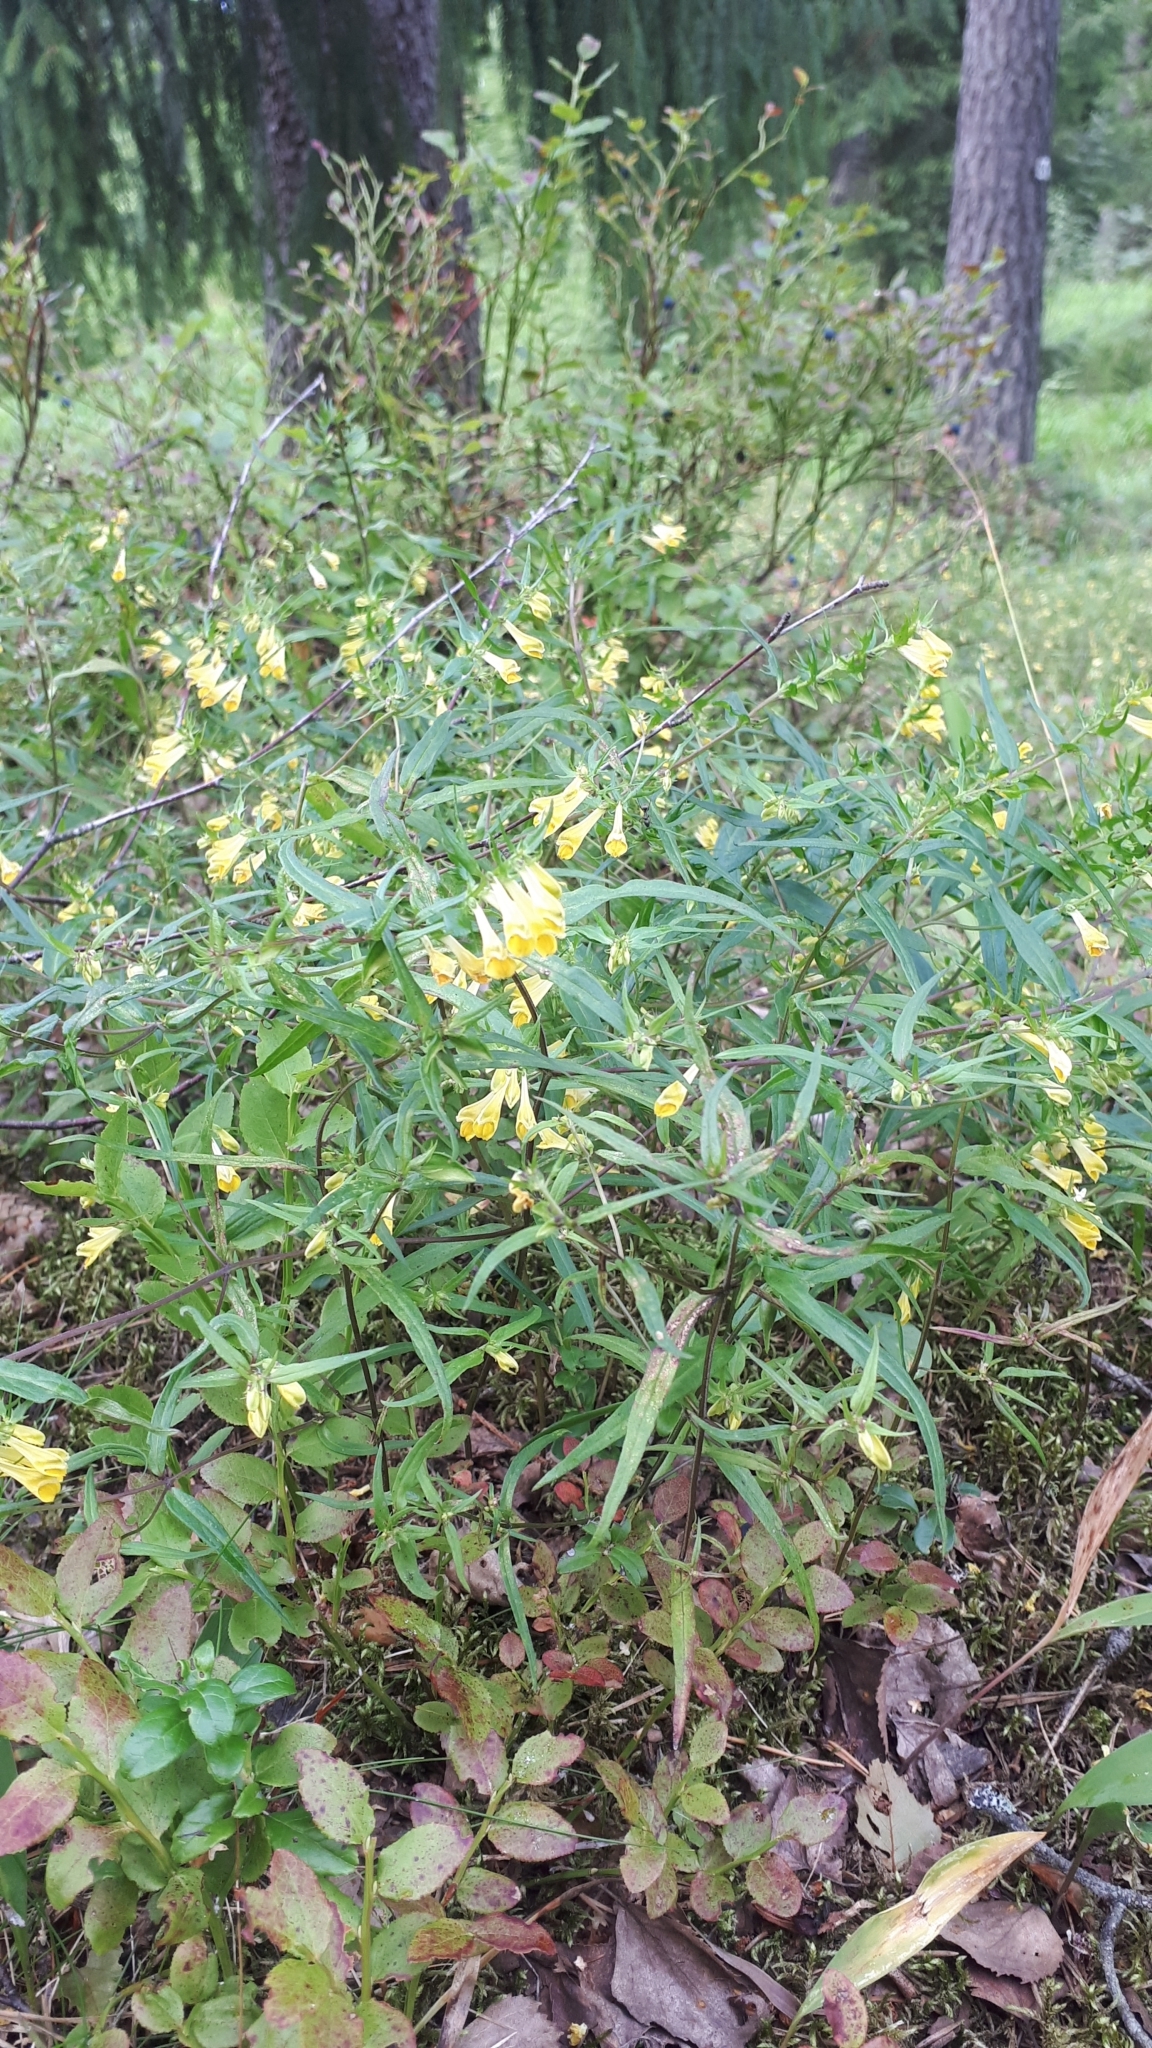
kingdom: Plantae
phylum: Tracheophyta
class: Magnoliopsida
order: Lamiales
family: Orobanchaceae
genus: Melampyrum
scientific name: Melampyrum pratense
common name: Common cow-wheat
